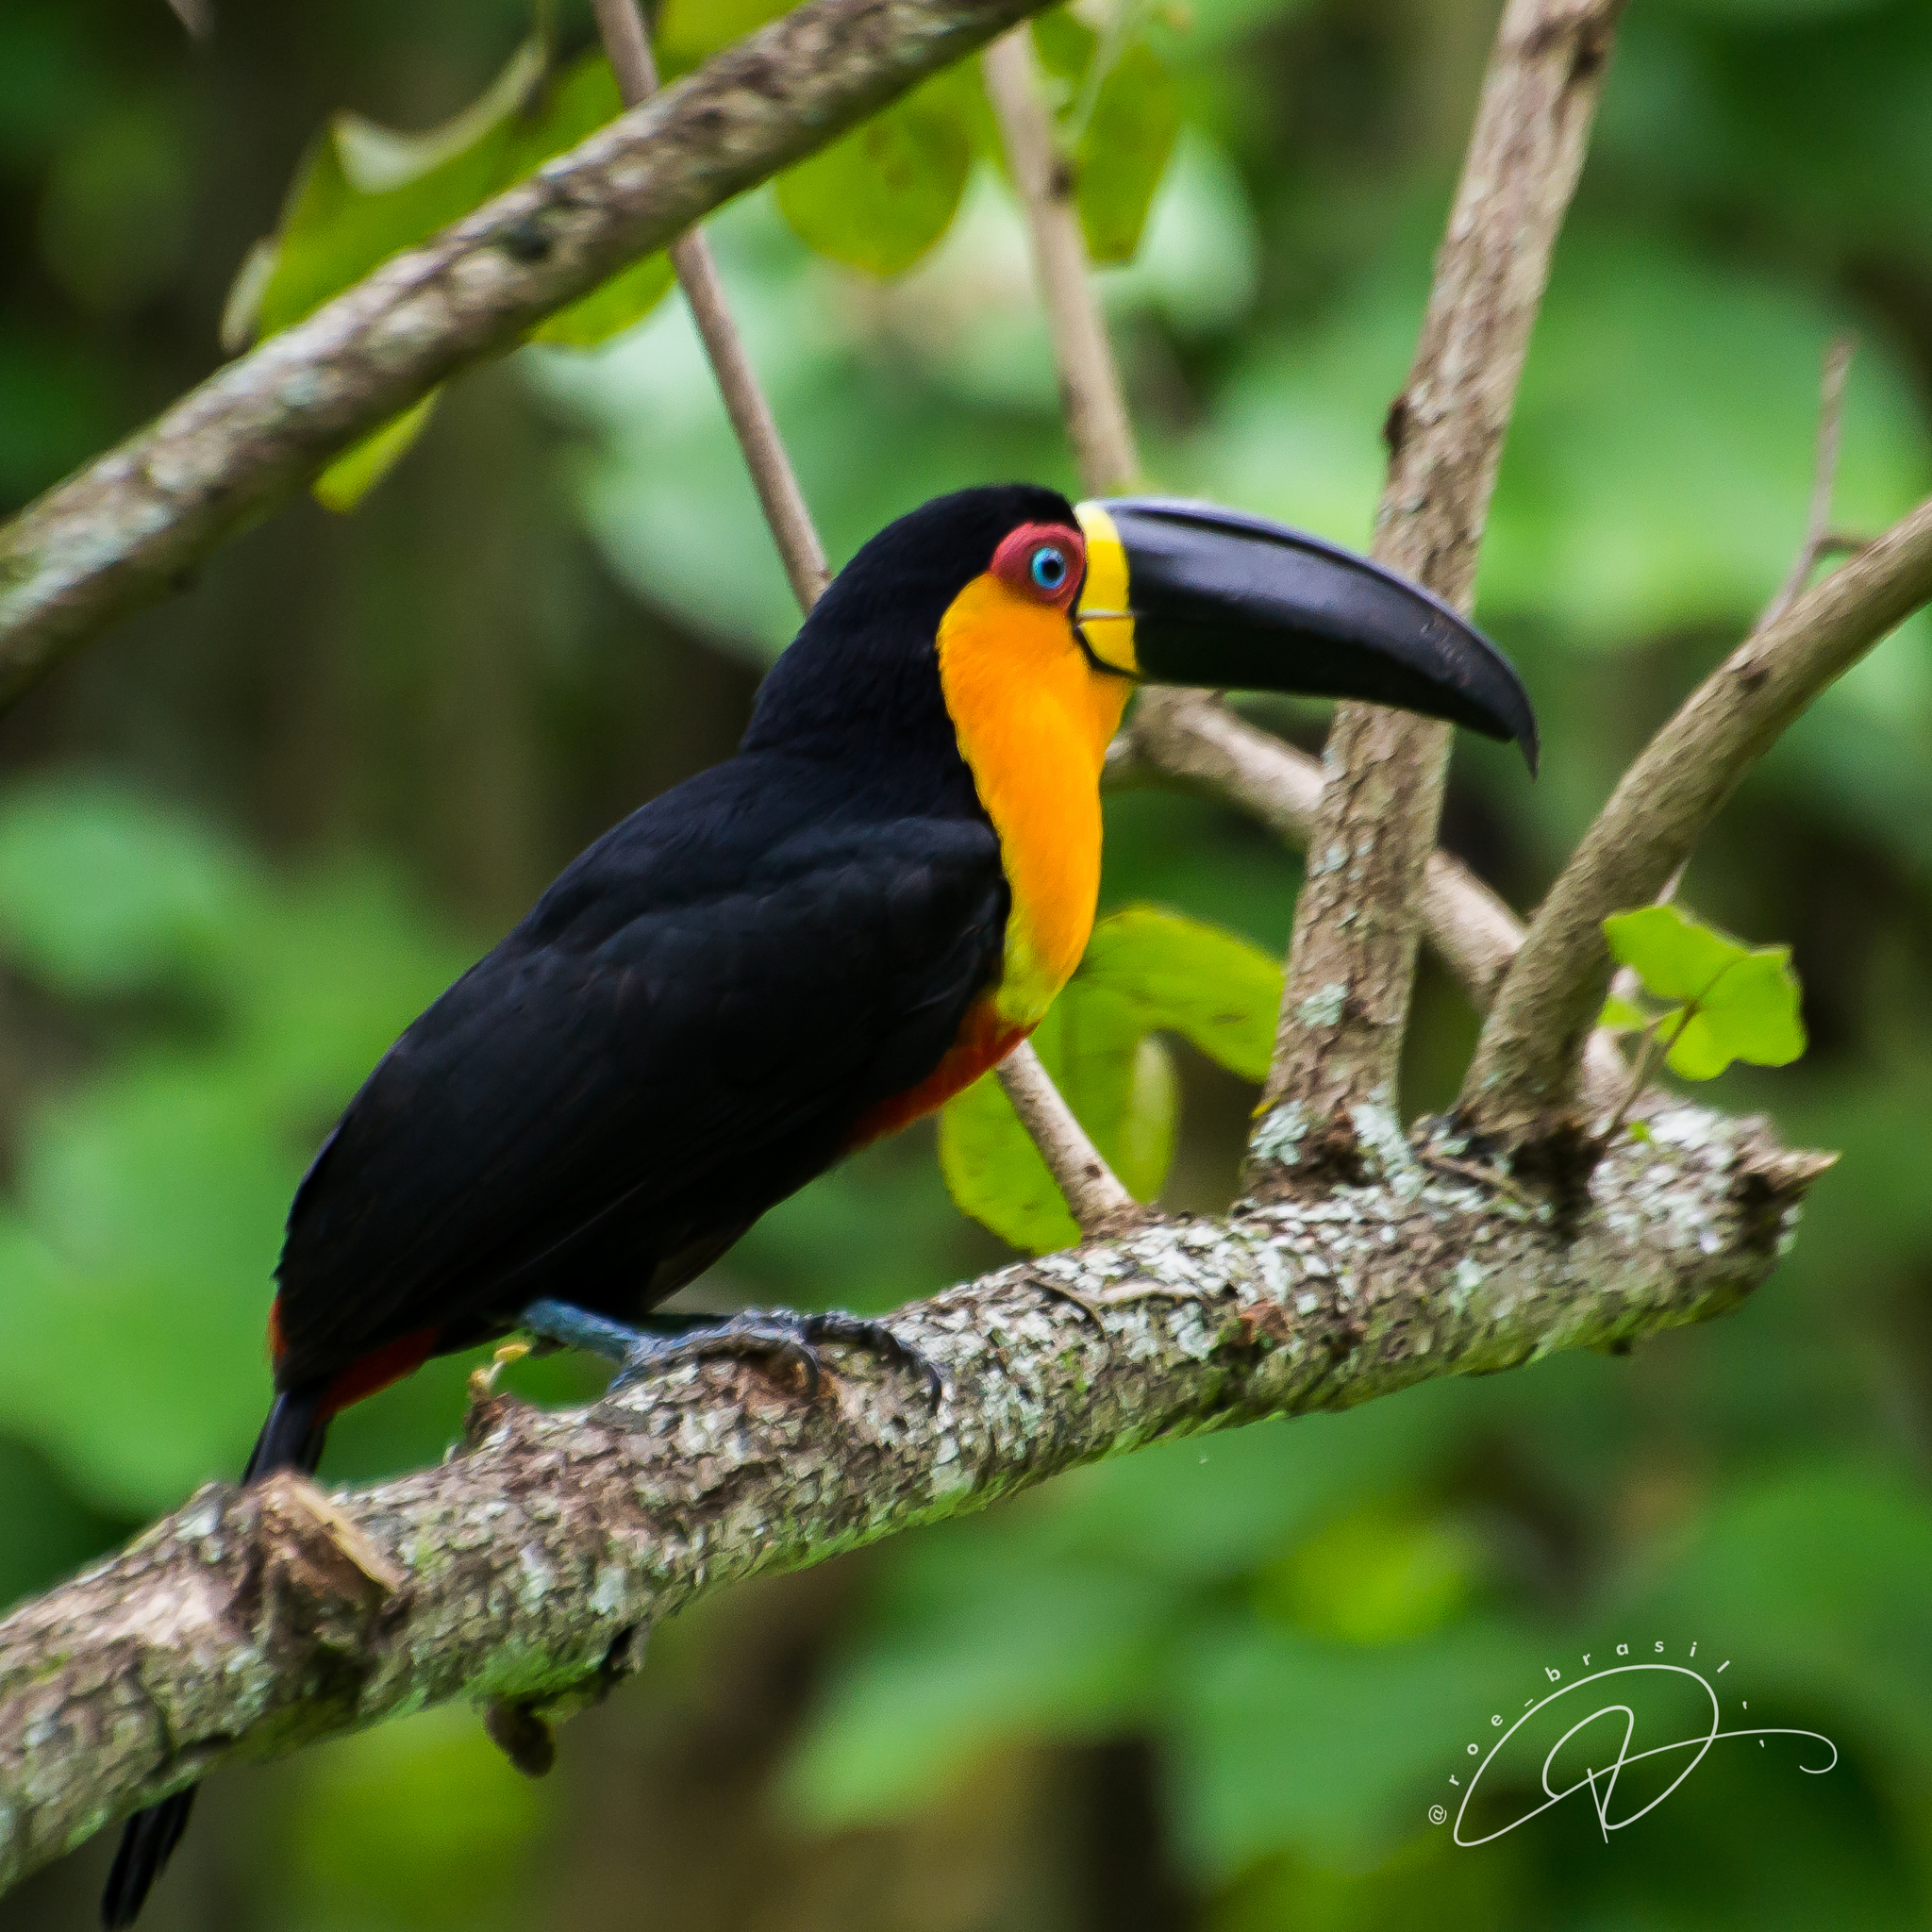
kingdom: Animalia
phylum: Chordata
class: Aves
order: Piciformes
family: Ramphastidae
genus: Ramphastos
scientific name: Ramphastos vitellinus
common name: Channel-billed toucan
